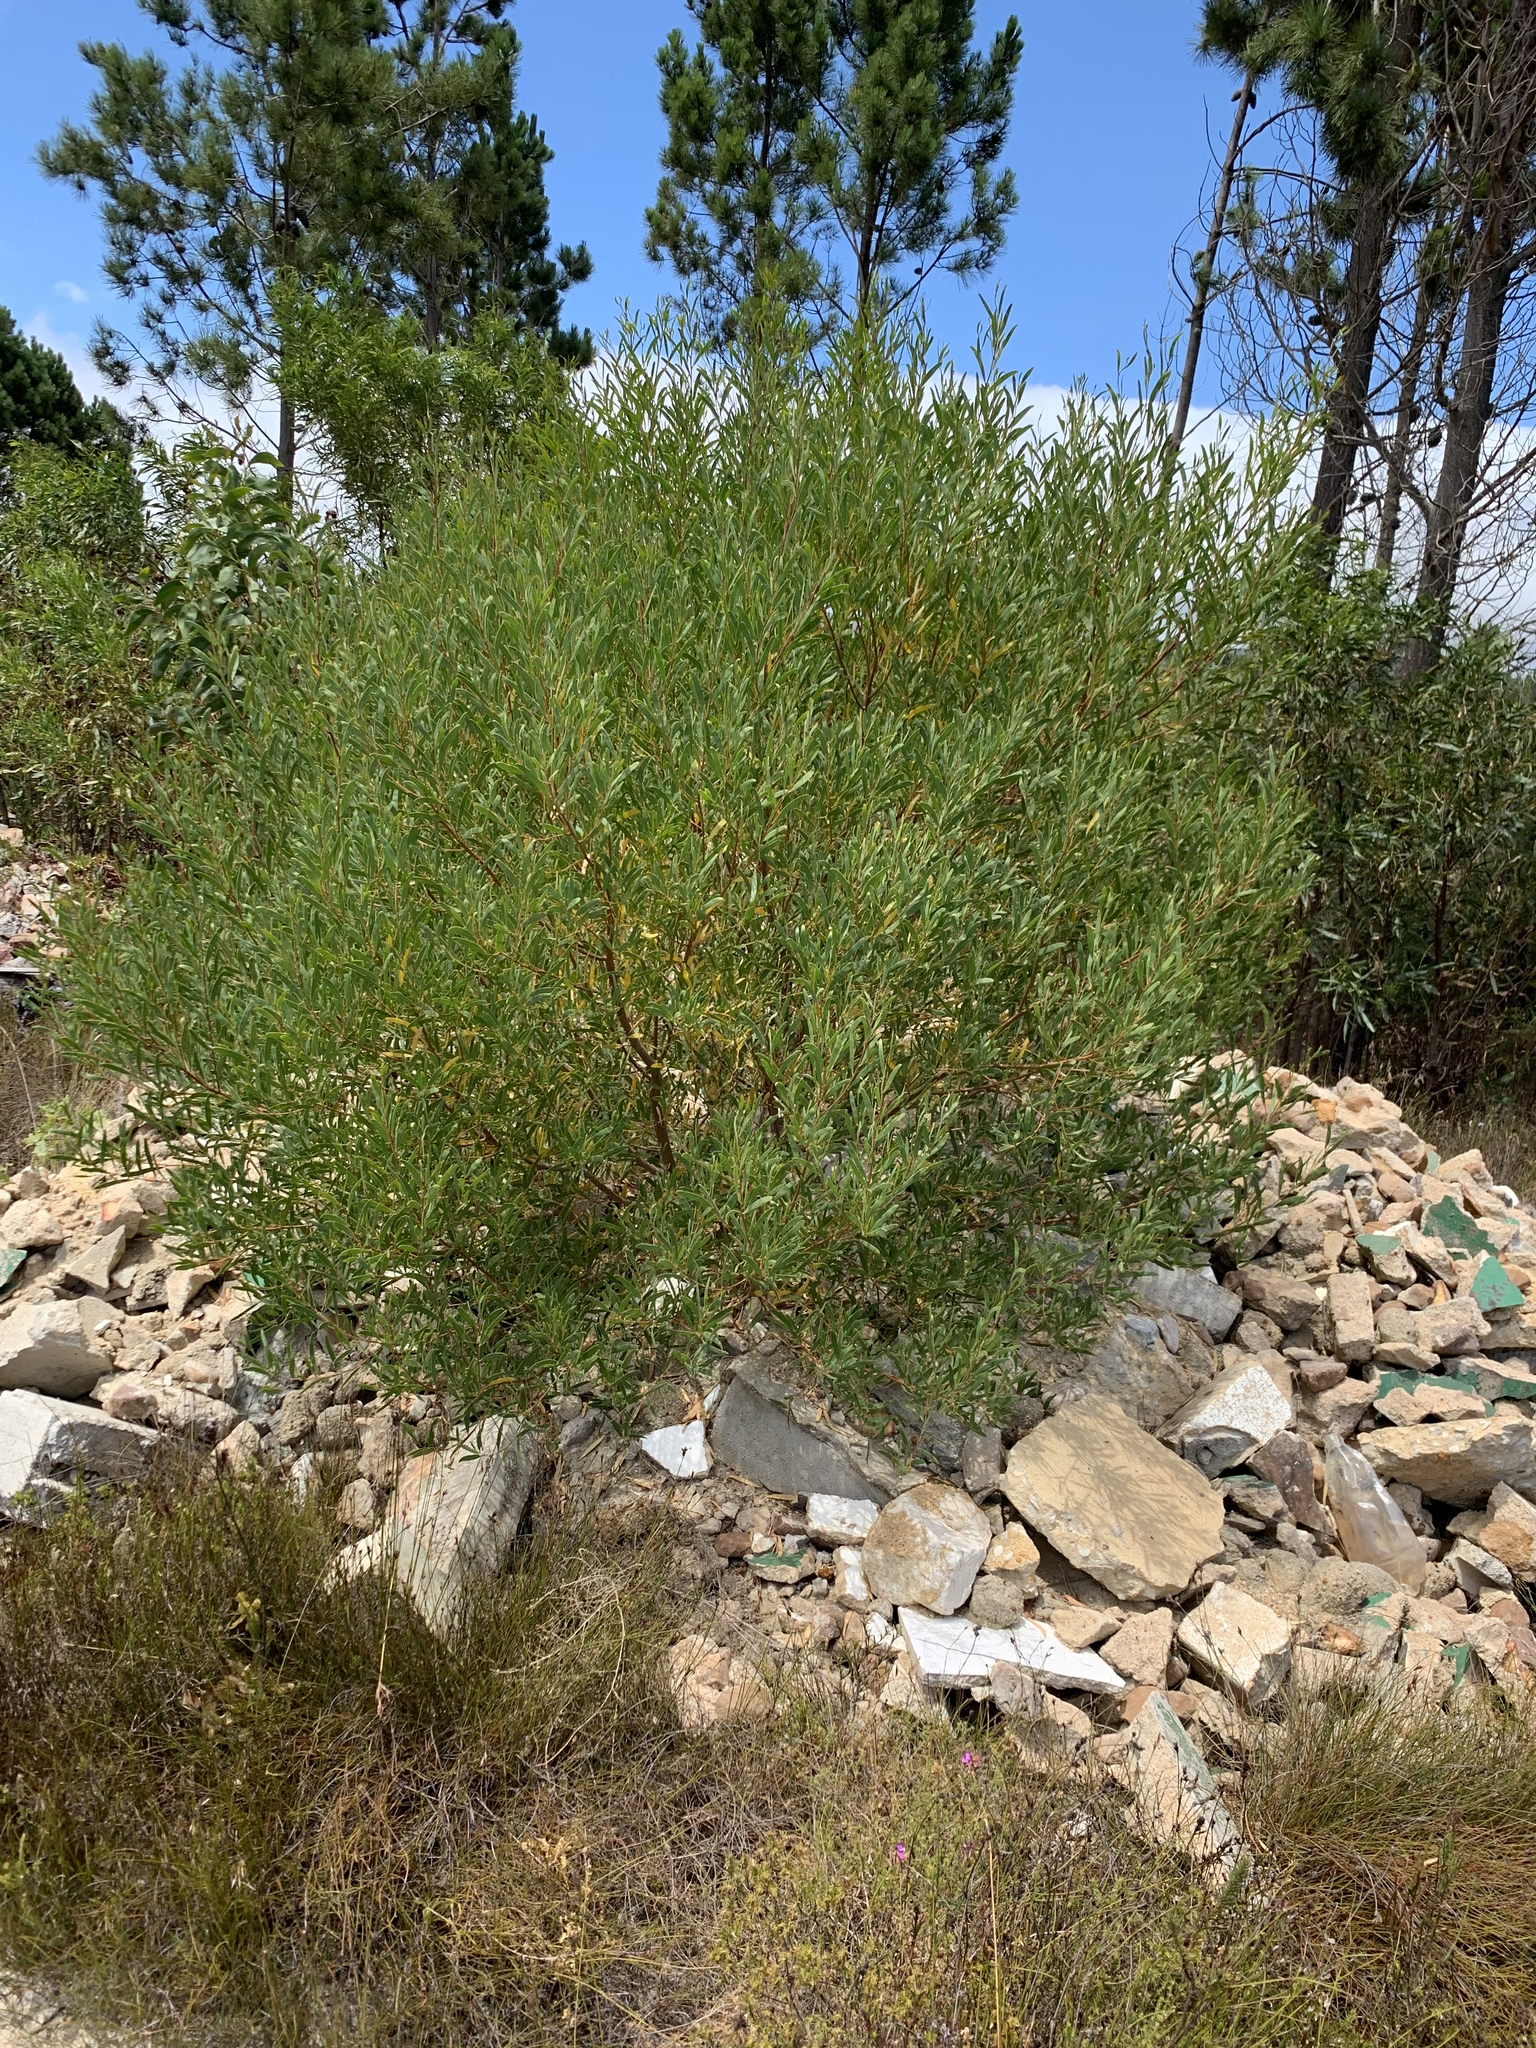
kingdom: Plantae
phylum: Tracheophyta
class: Magnoliopsida
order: Fabales
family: Fabaceae
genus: Acacia
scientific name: Acacia cyclops
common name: Coastal wattle
